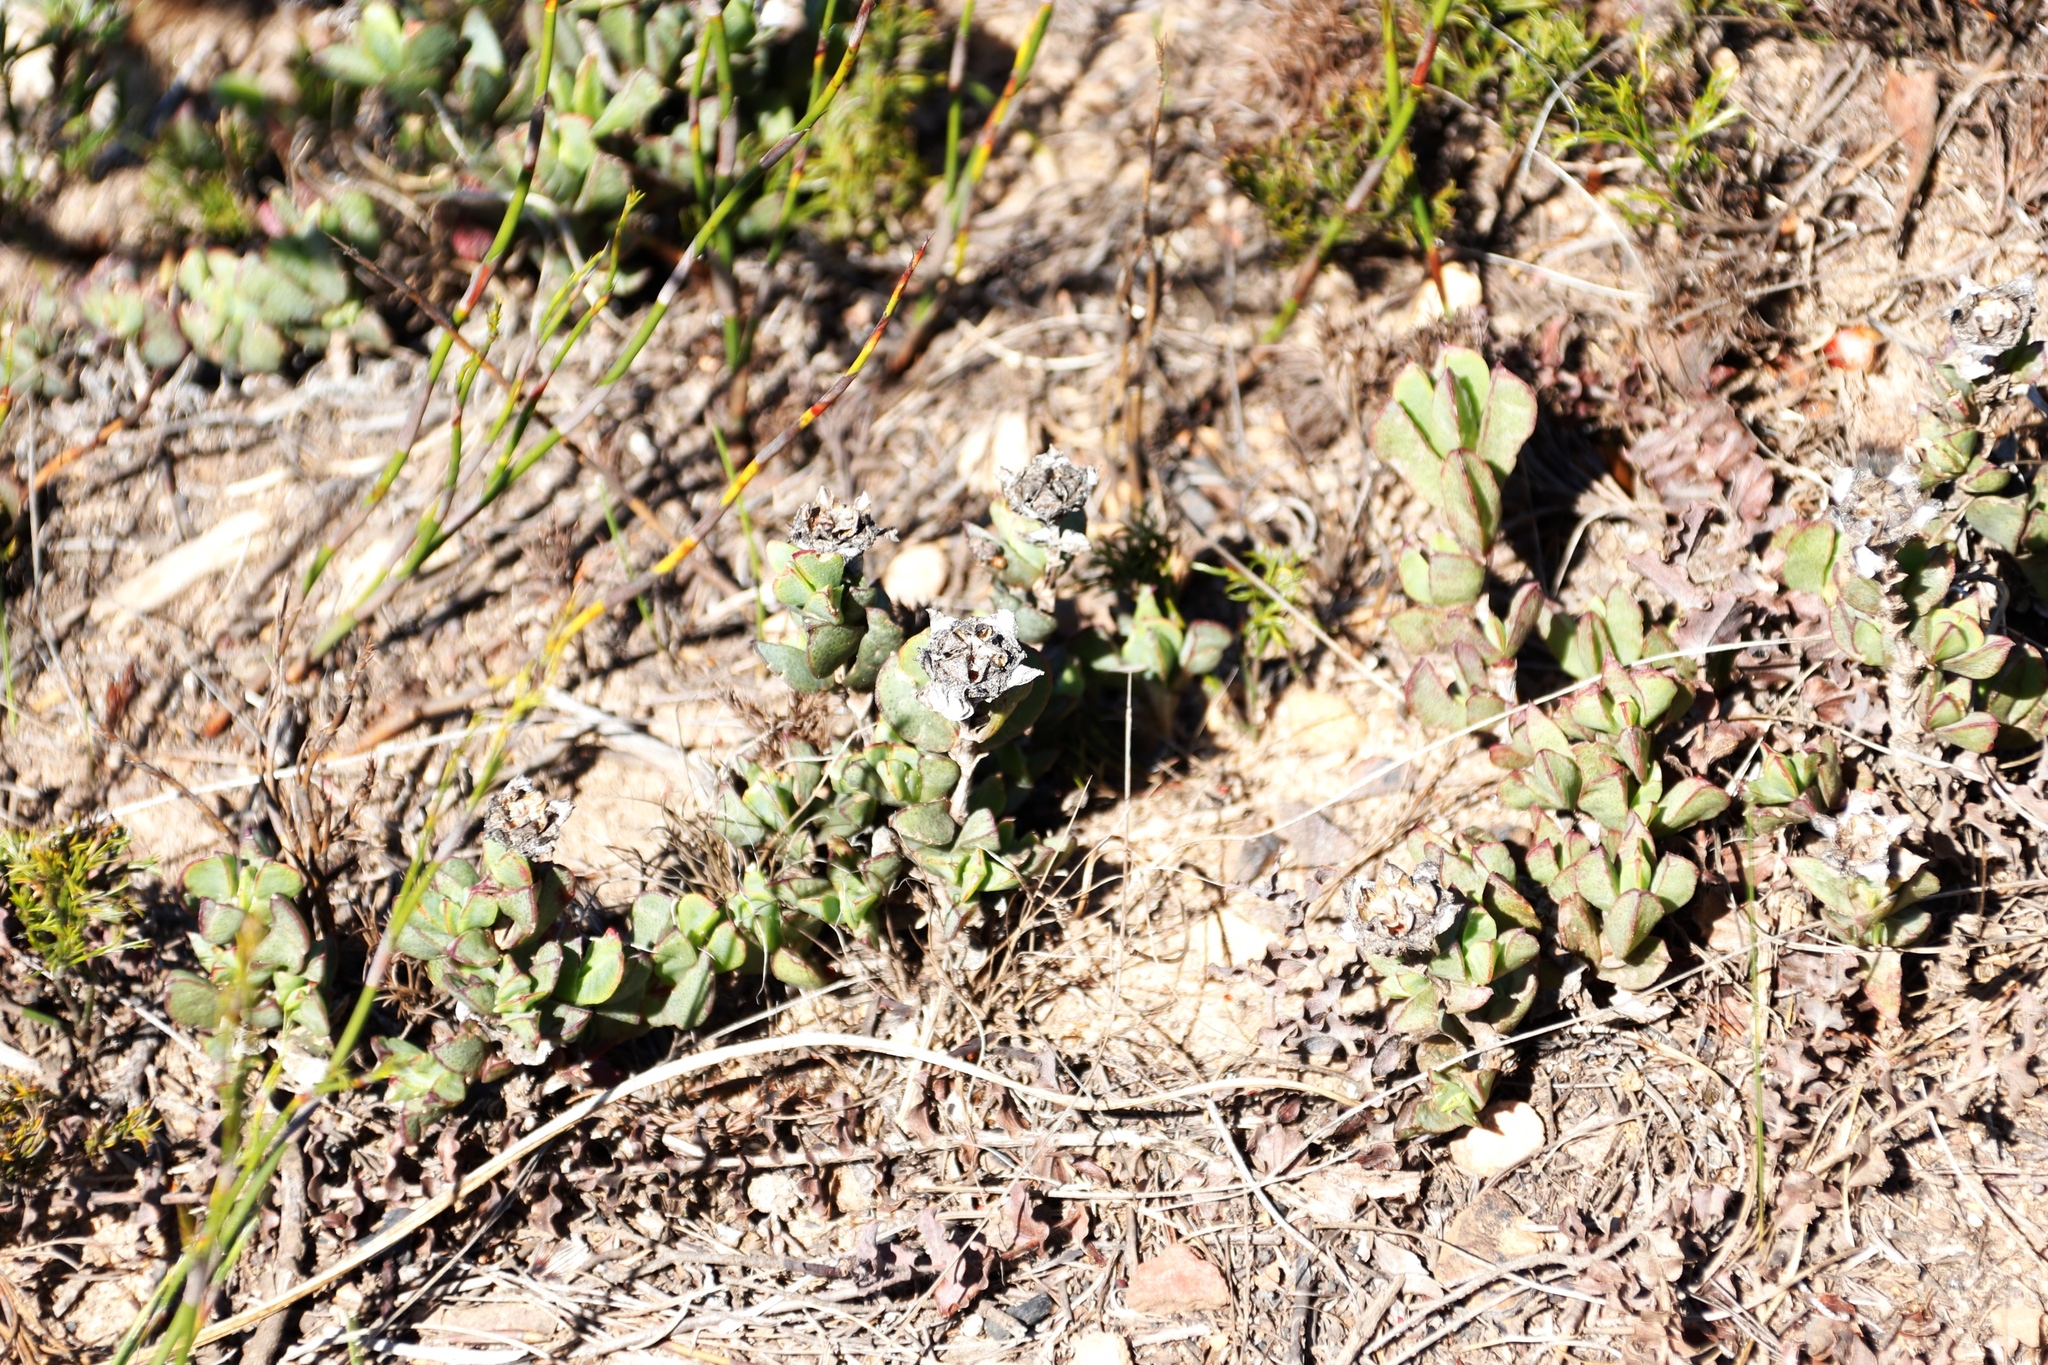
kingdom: Plantae
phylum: Tracheophyta
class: Magnoliopsida
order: Caryophyllales
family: Aizoaceae
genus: Erepsia
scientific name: Erepsia forficata
